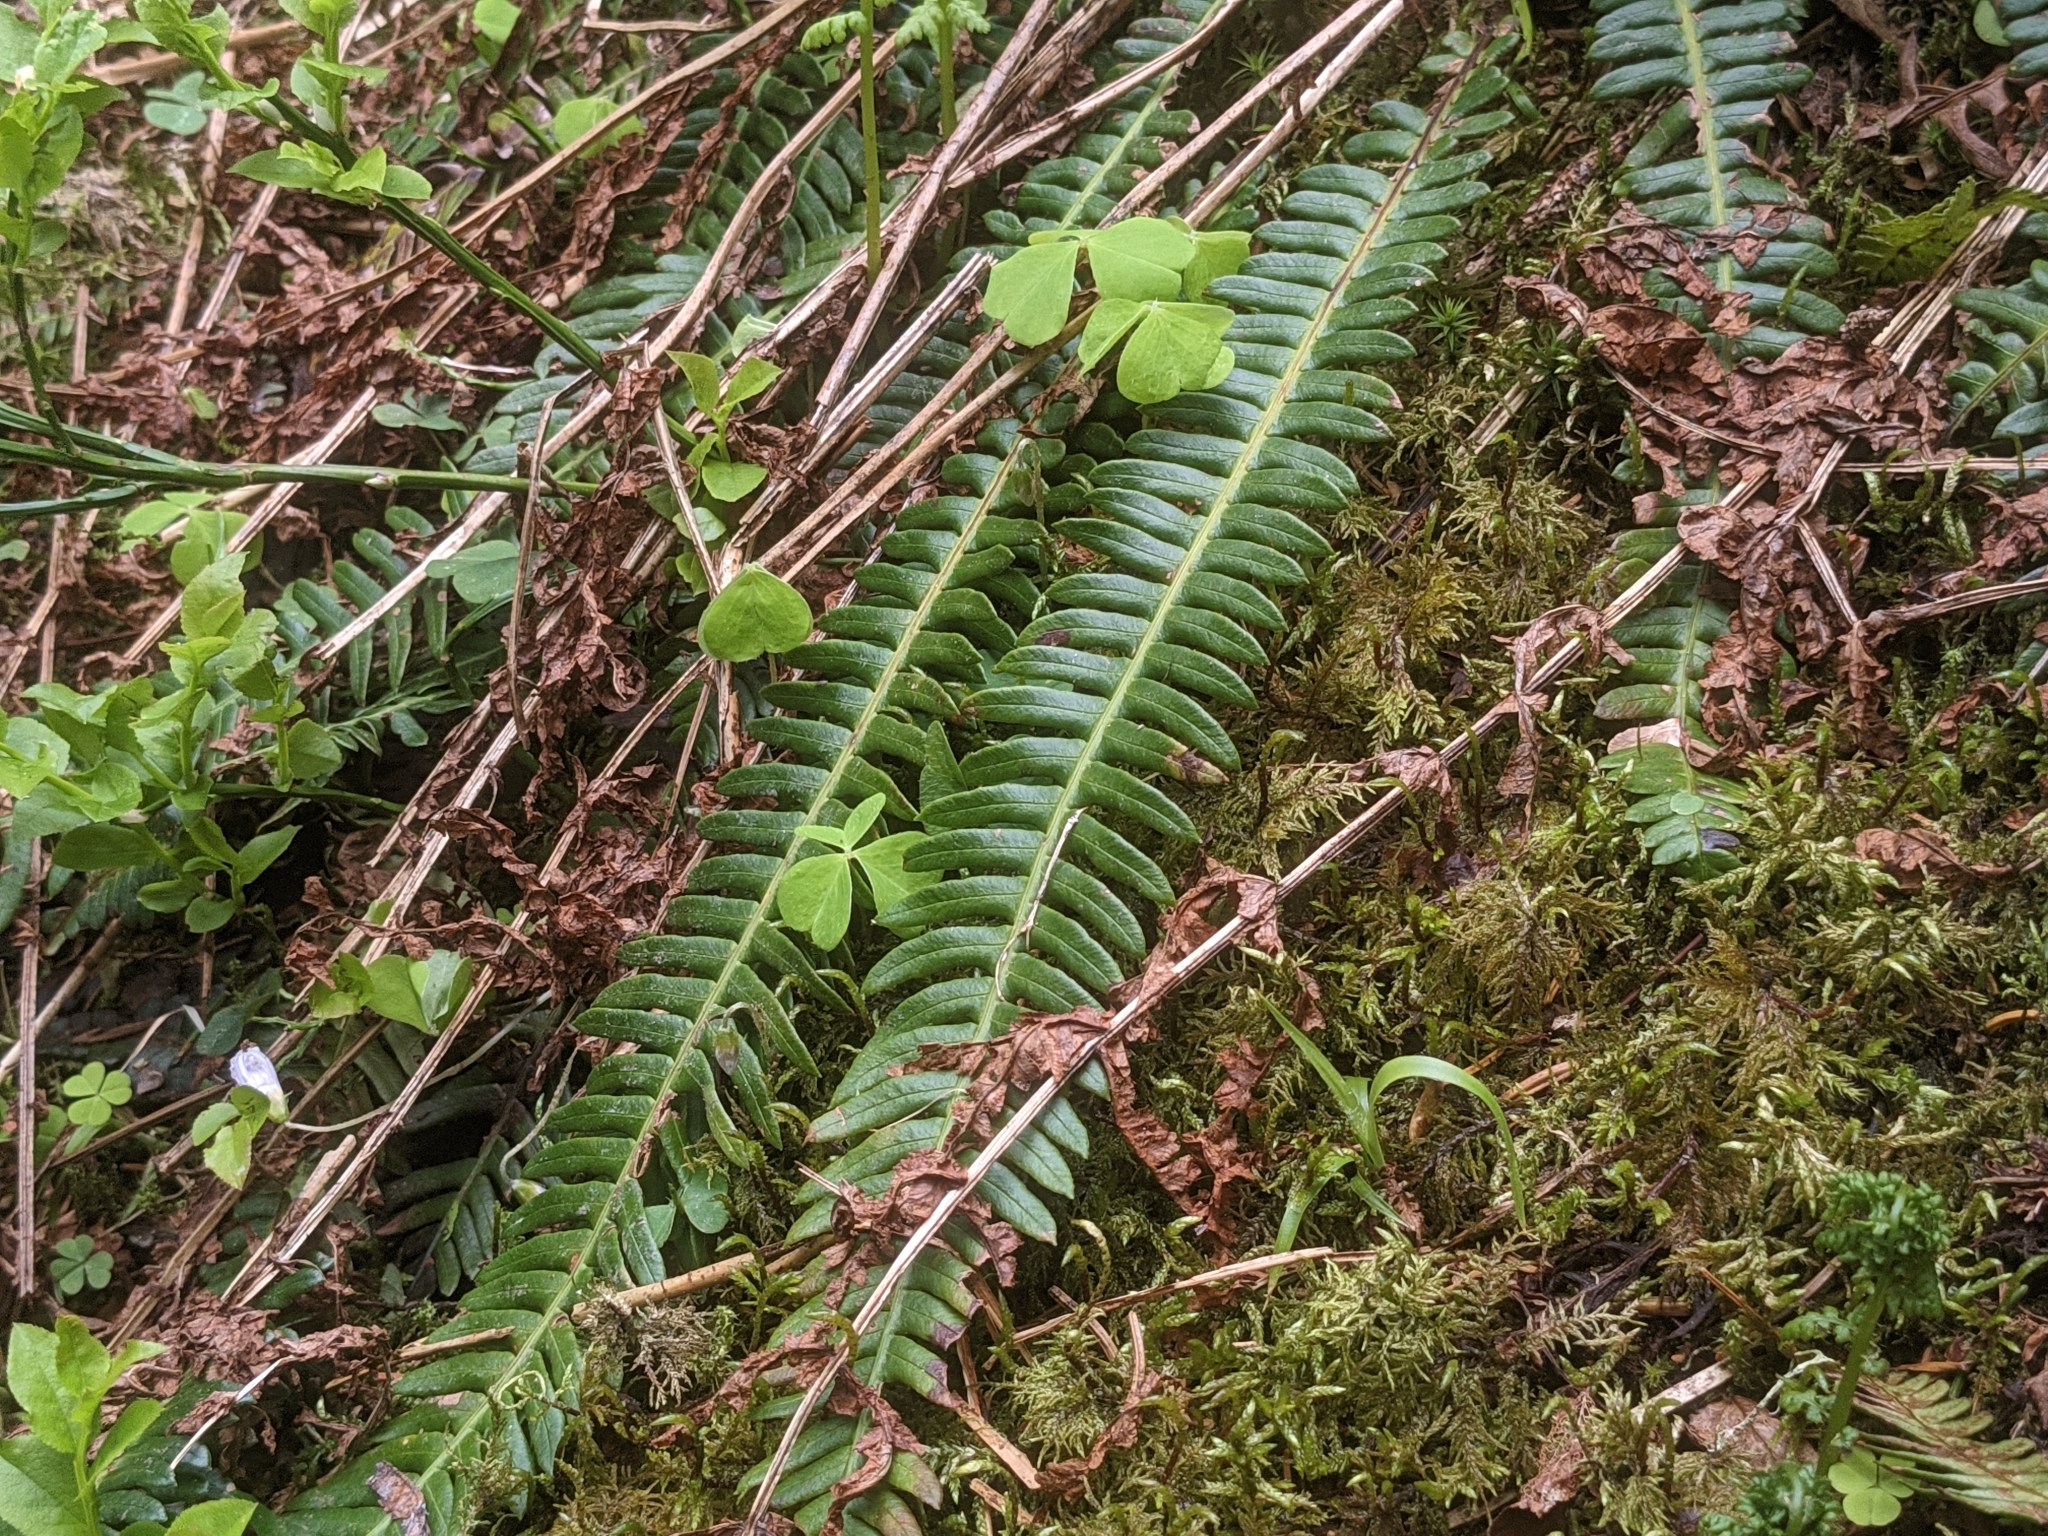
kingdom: Plantae
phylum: Tracheophyta
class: Polypodiopsida
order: Polypodiales
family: Blechnaceae
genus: Struthiopteris
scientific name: Struthiopteris spicant
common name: Deer fern
